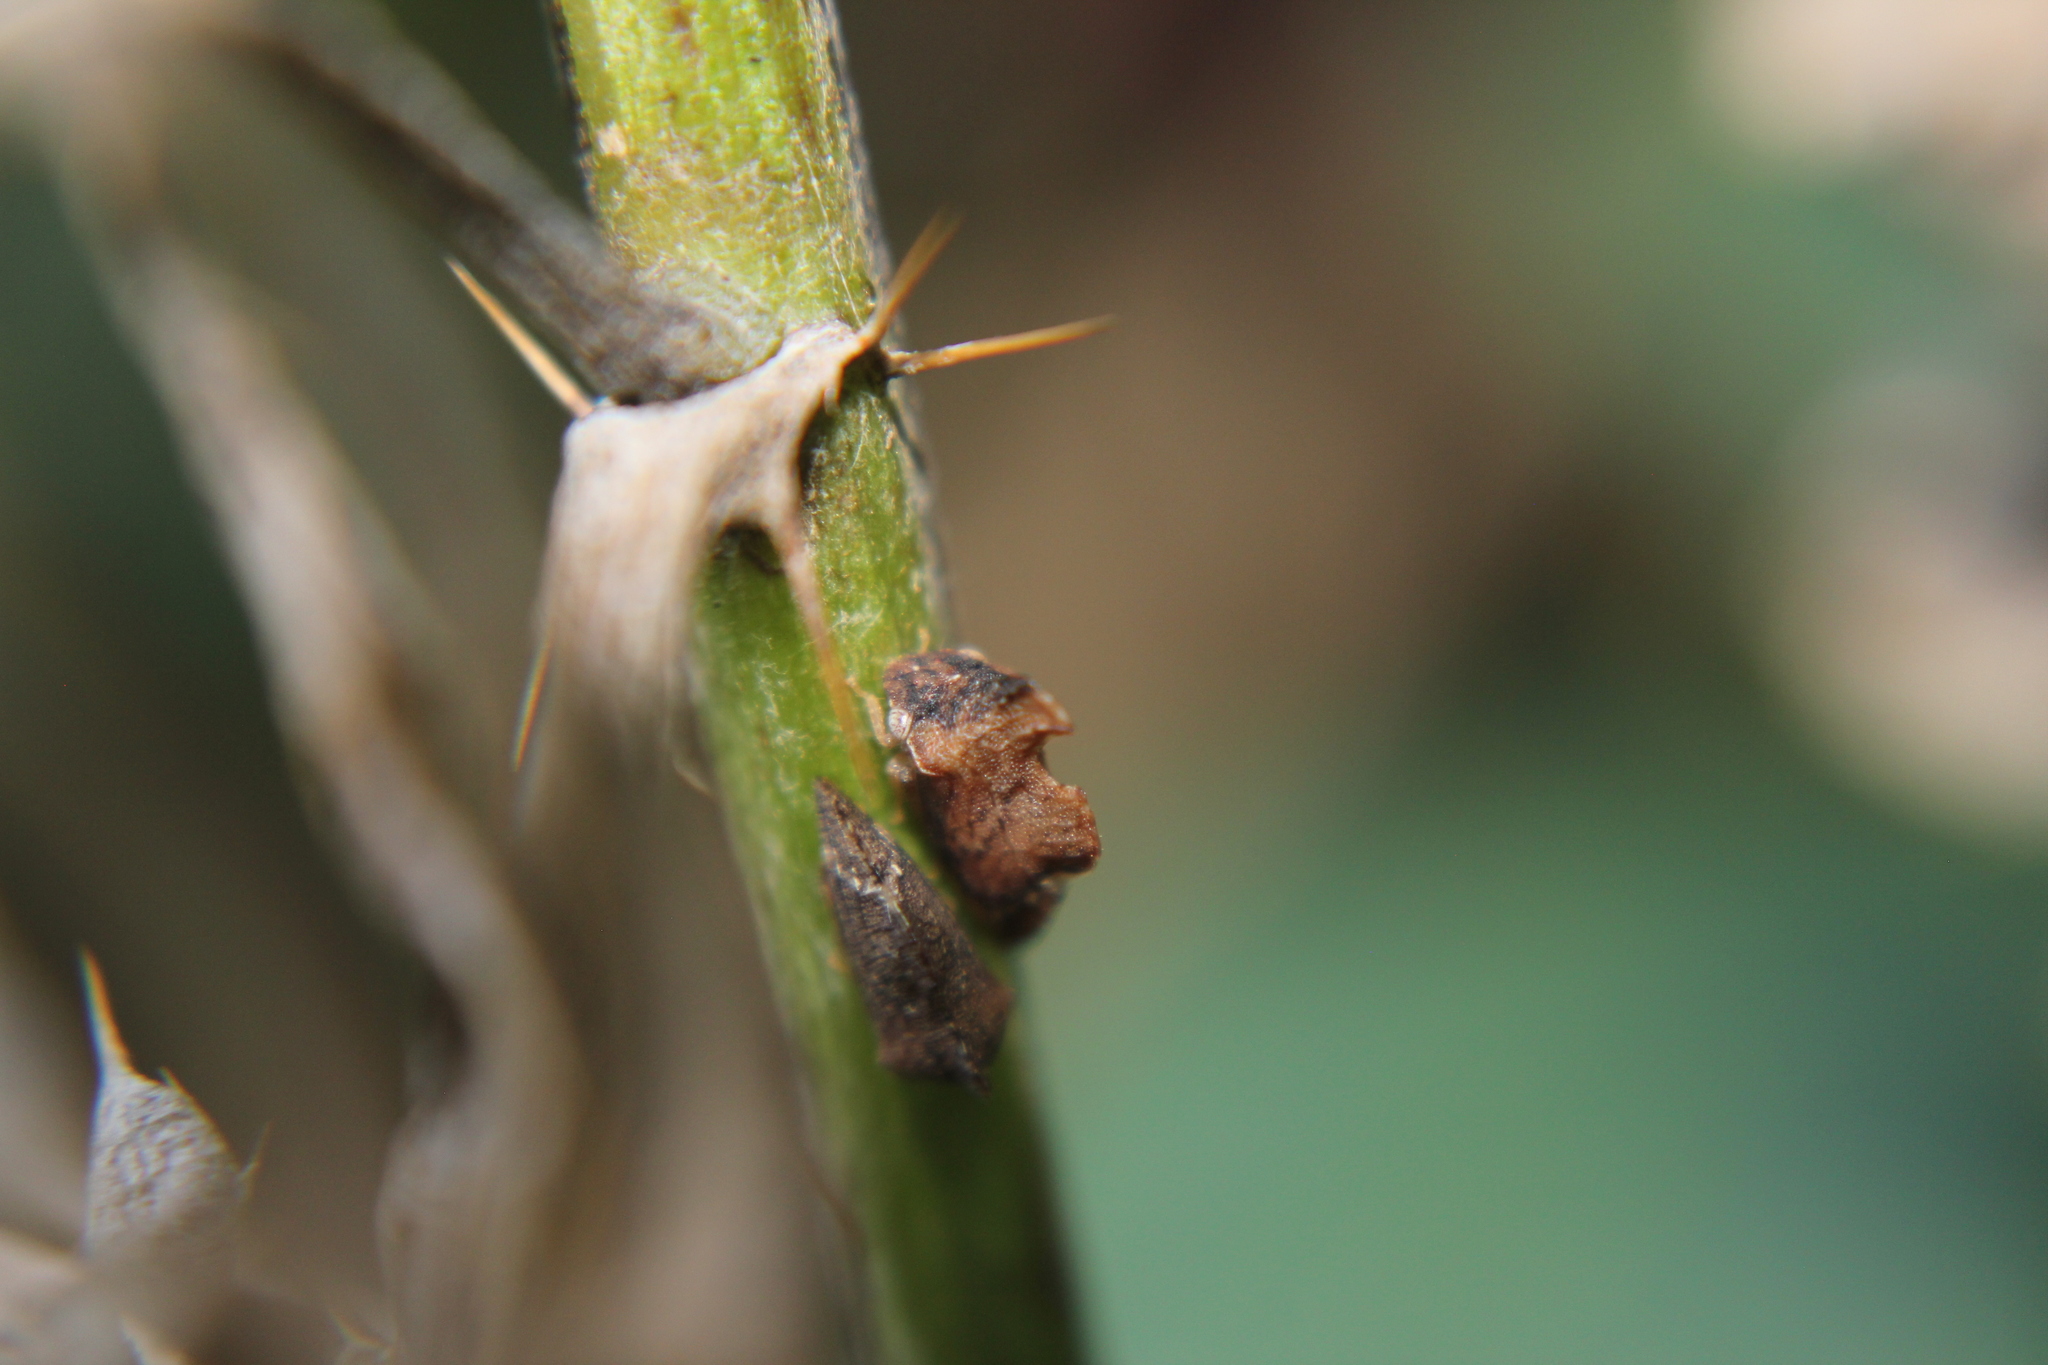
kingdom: Animalia
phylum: Arthropoda
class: Insecta
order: Hemiptera
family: Membracidae
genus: Entylia
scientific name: Entylia carinata
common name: Keeled treehopper
